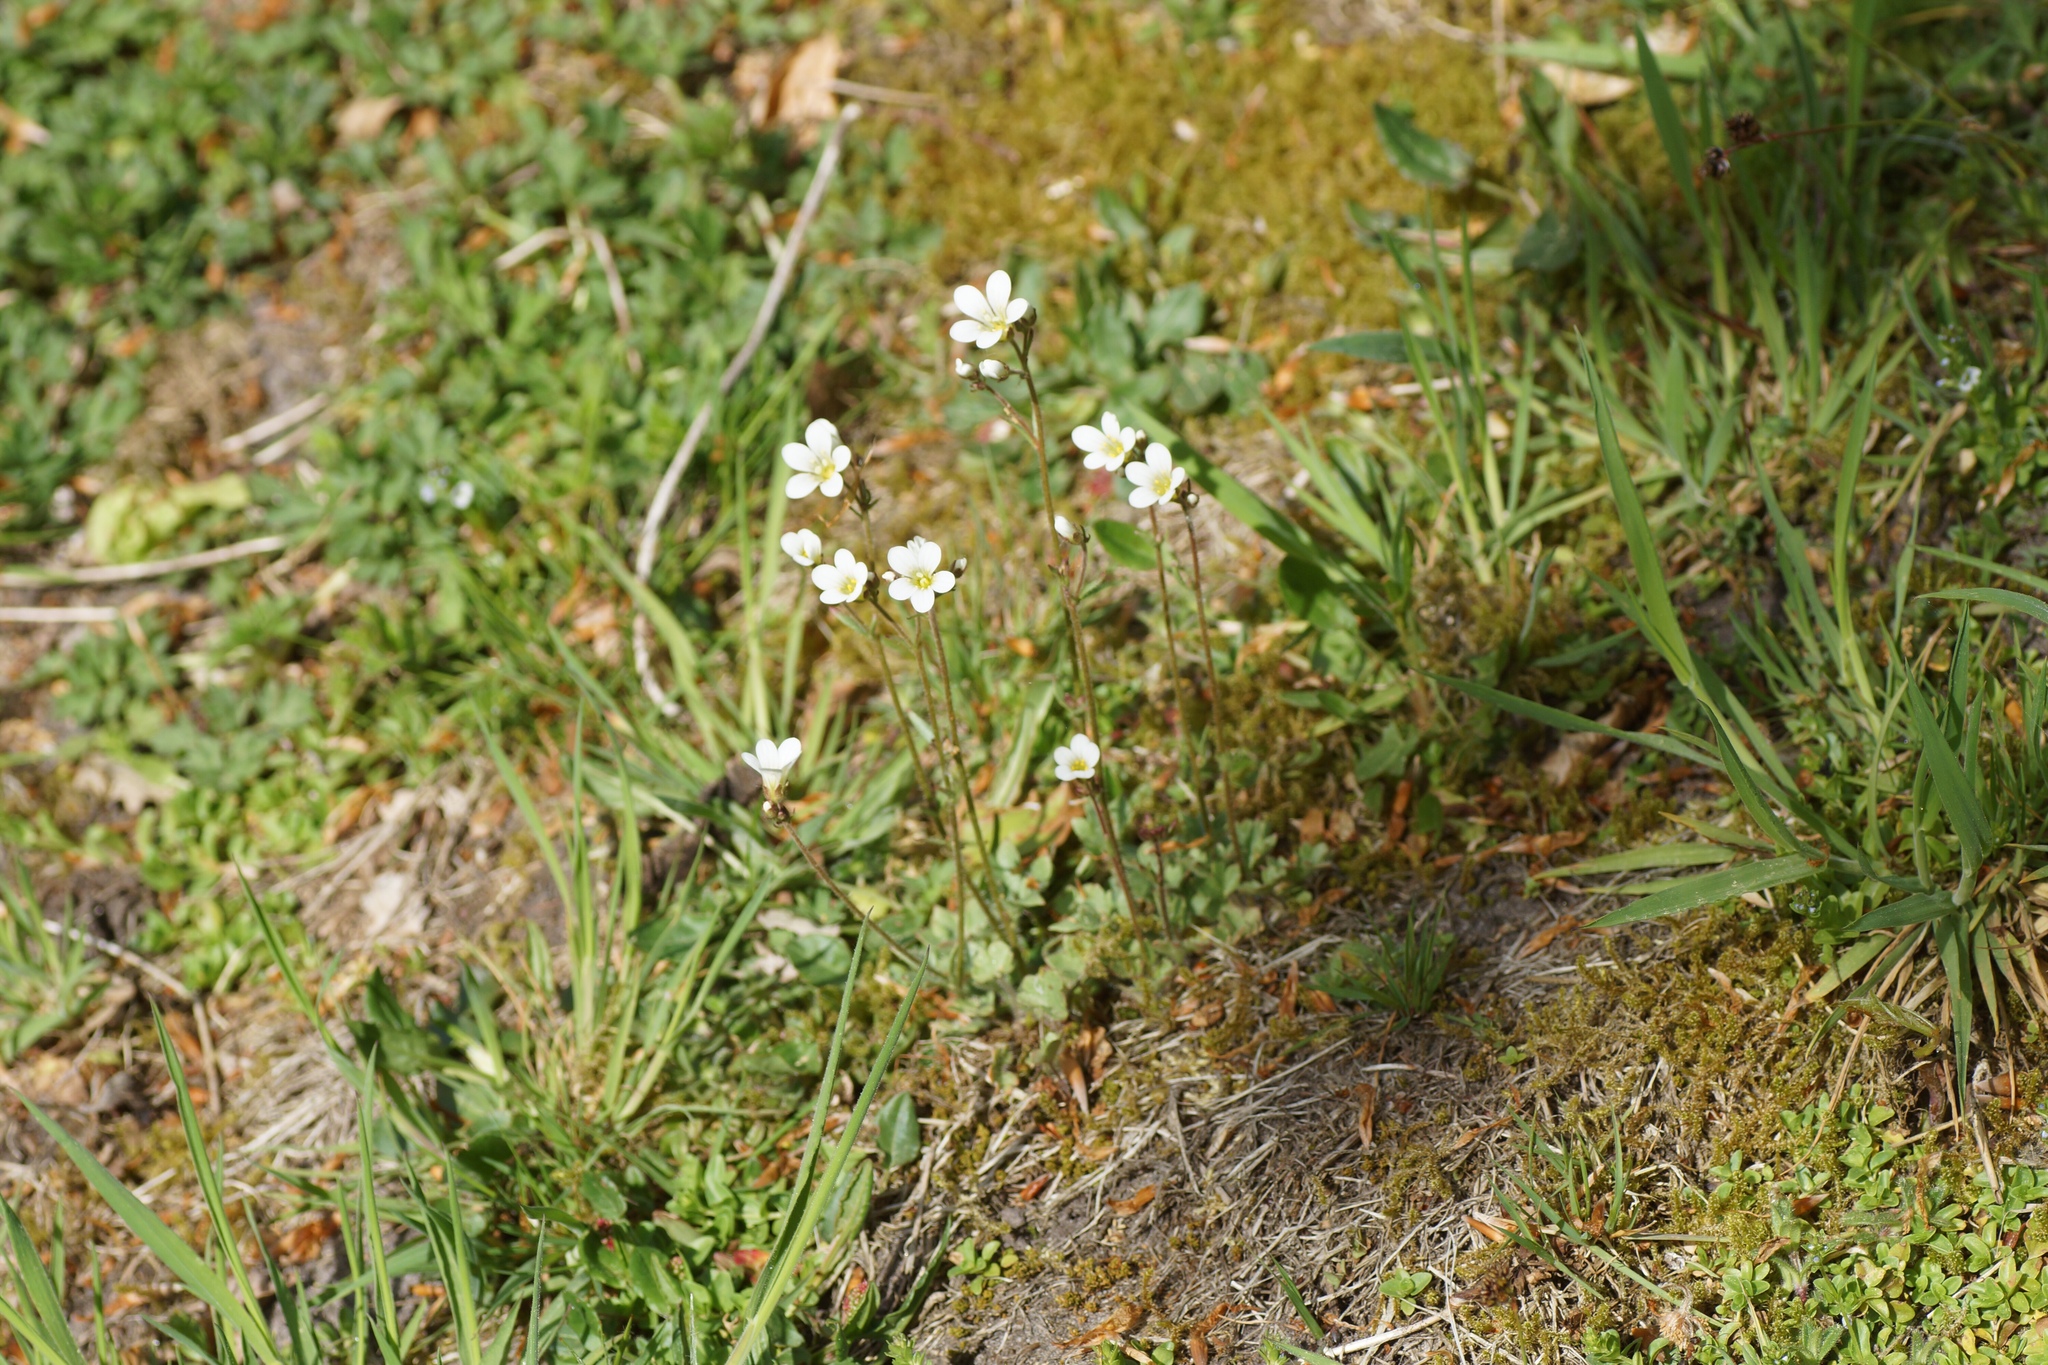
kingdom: Plantae
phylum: Tracheophyta
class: Magnoliopsida
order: Saxifragales
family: Saxifragaceae
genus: Saxifraga
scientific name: Saxifraga granulata
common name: Meadow saxifrage
